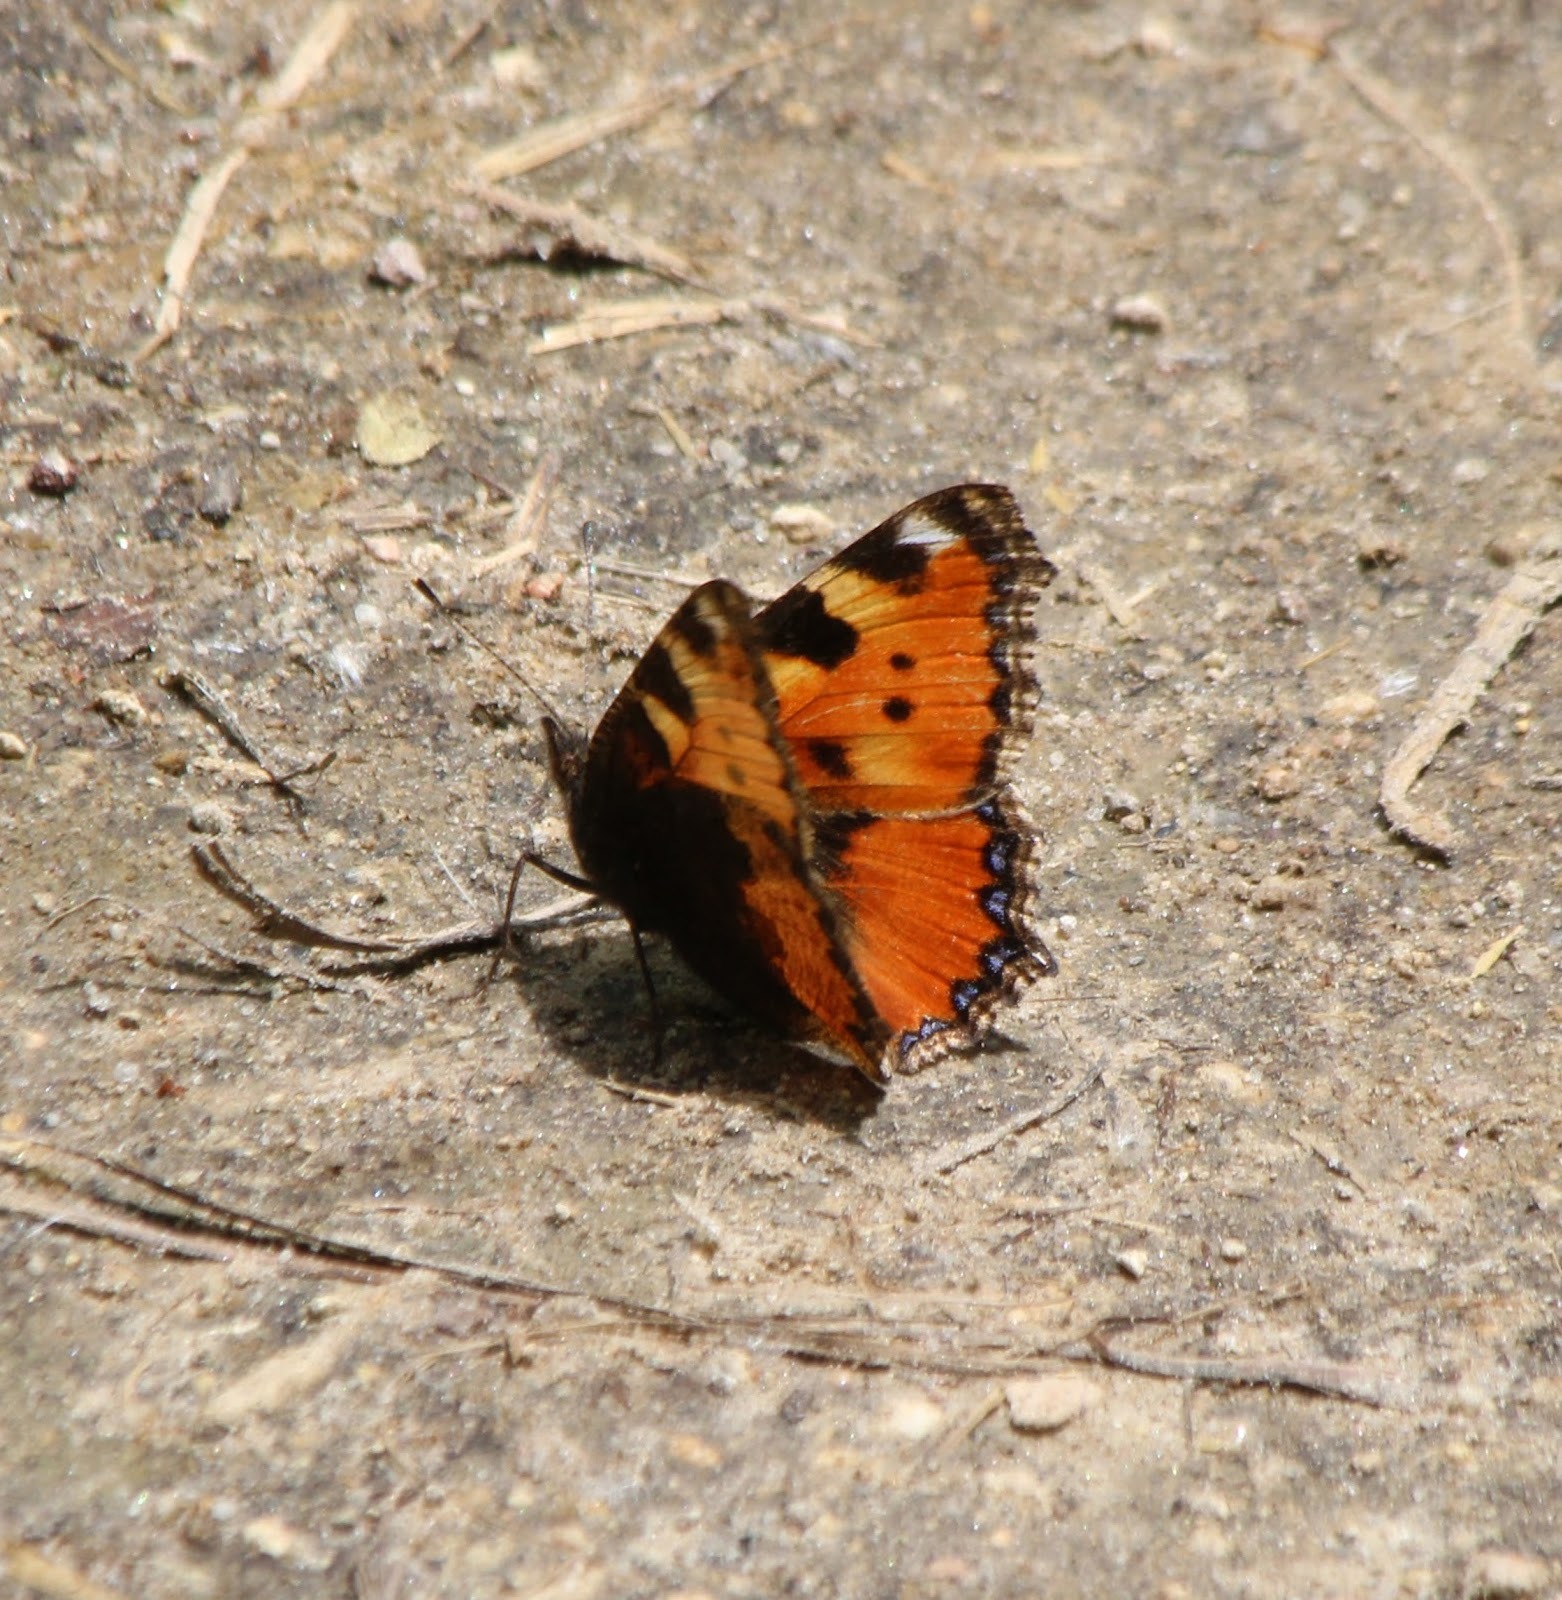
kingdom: Animalia
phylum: Arthropoda
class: Insecta
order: Lepidoptera
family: Nymphalidae
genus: Aglais
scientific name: Aglais urticae
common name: Small tortoiseshell
